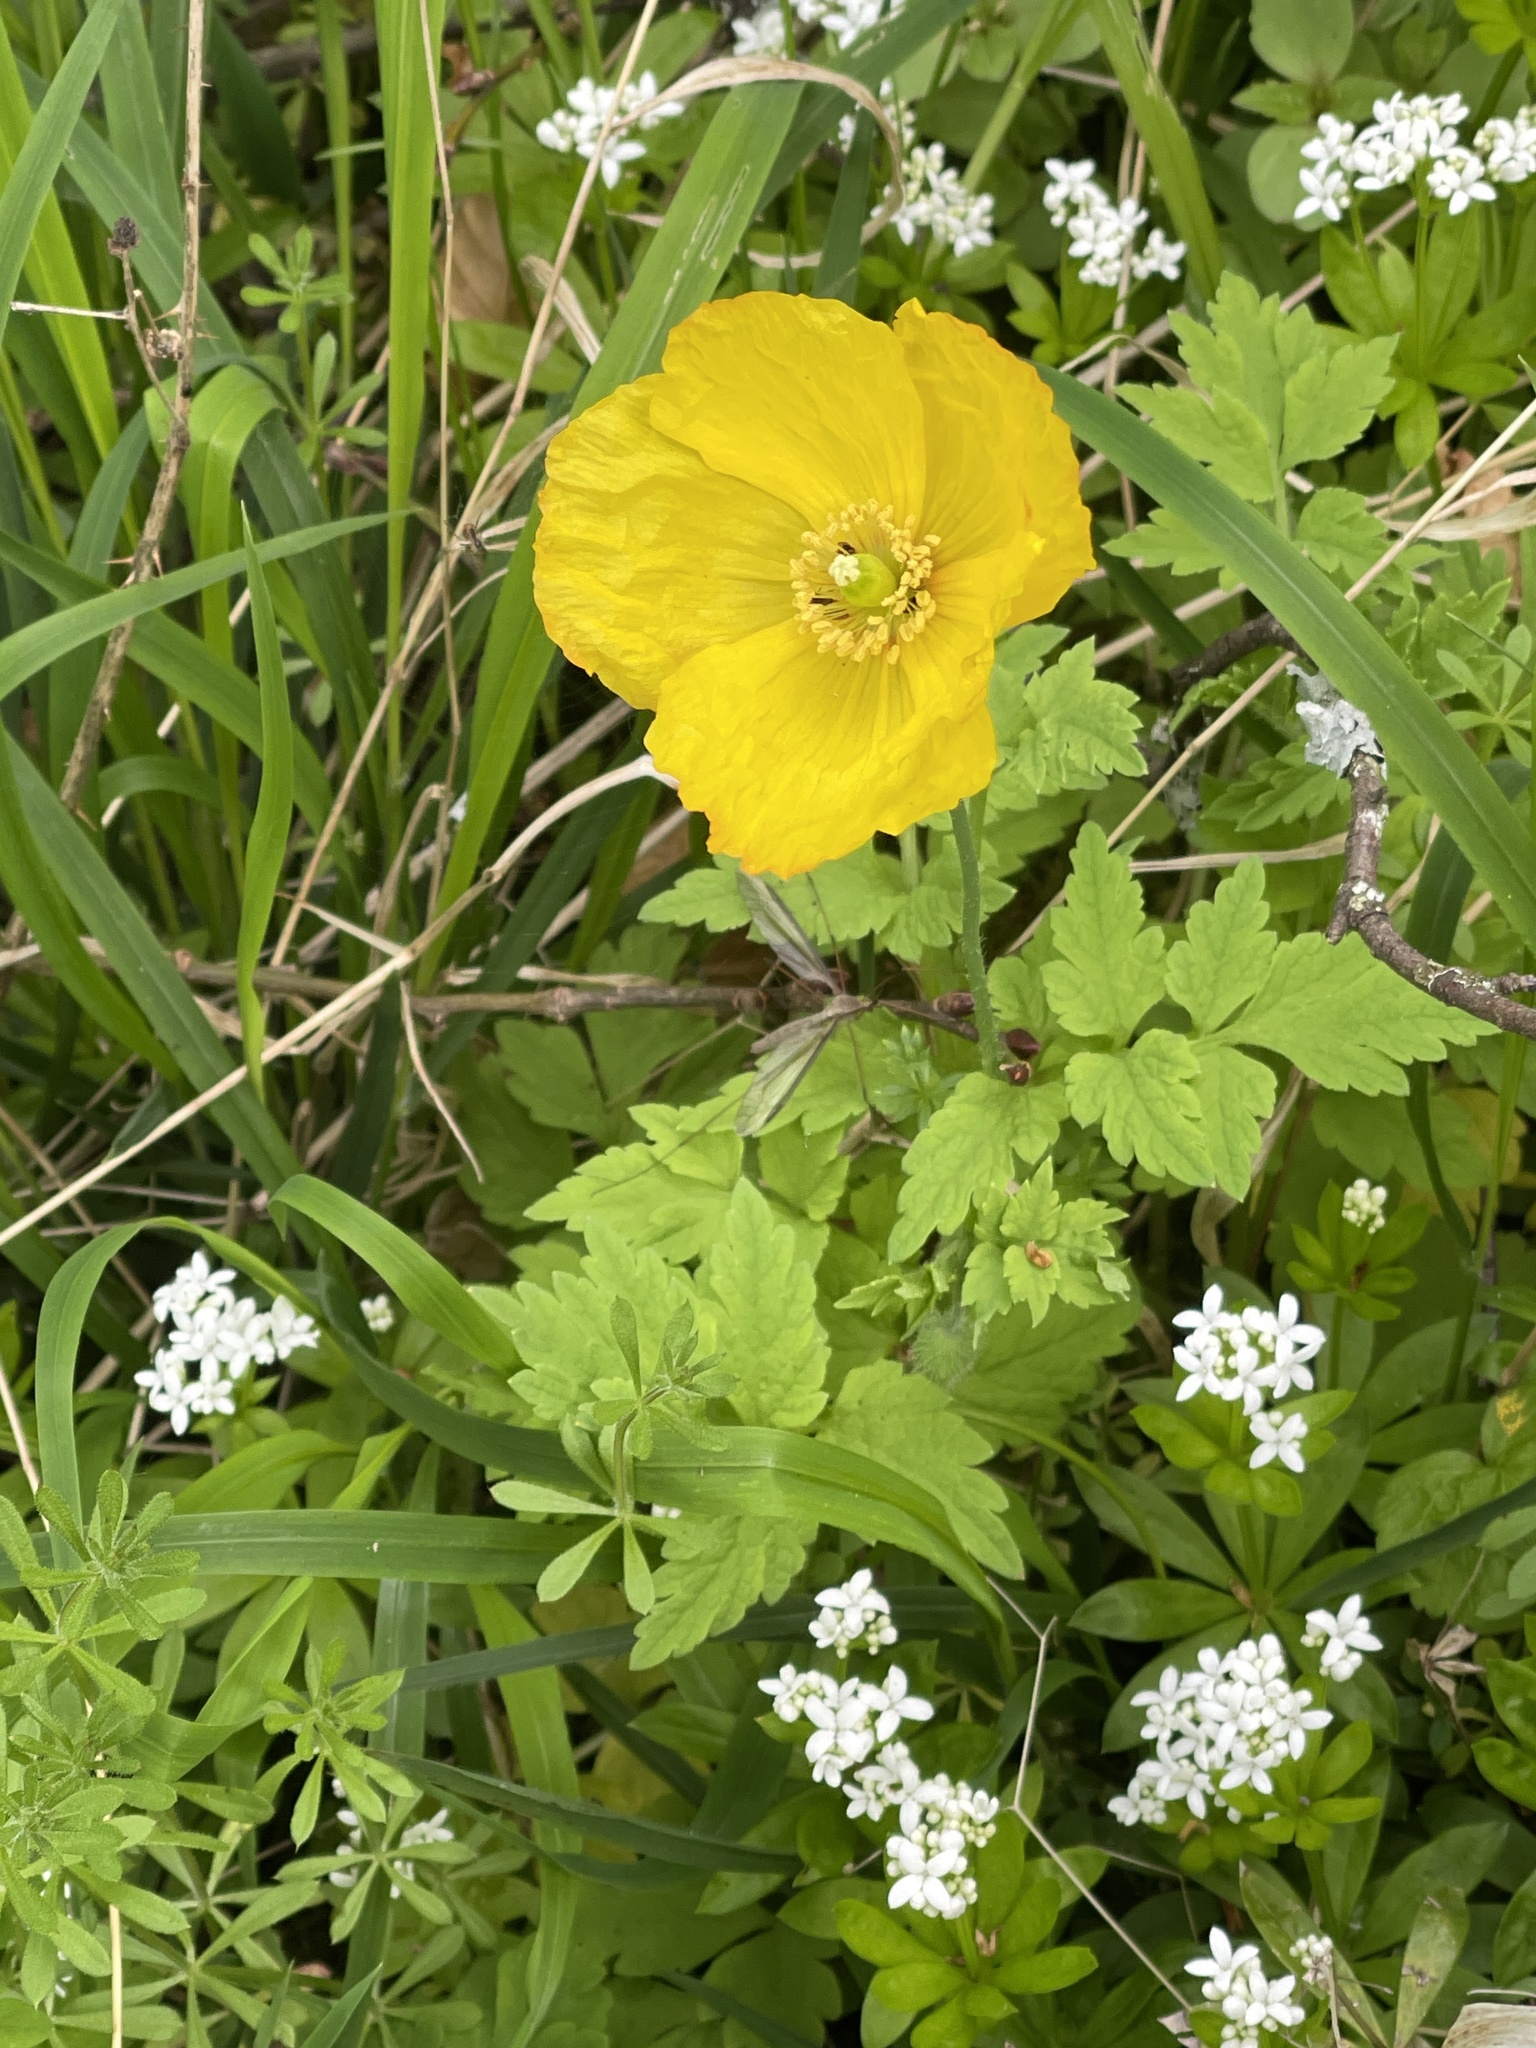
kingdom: Plantae
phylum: Tracheophyta
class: Magnoliopsida
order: Ranunculales
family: Papaveraceae
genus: Papaver
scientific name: Papaver cambricum
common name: Poppy
